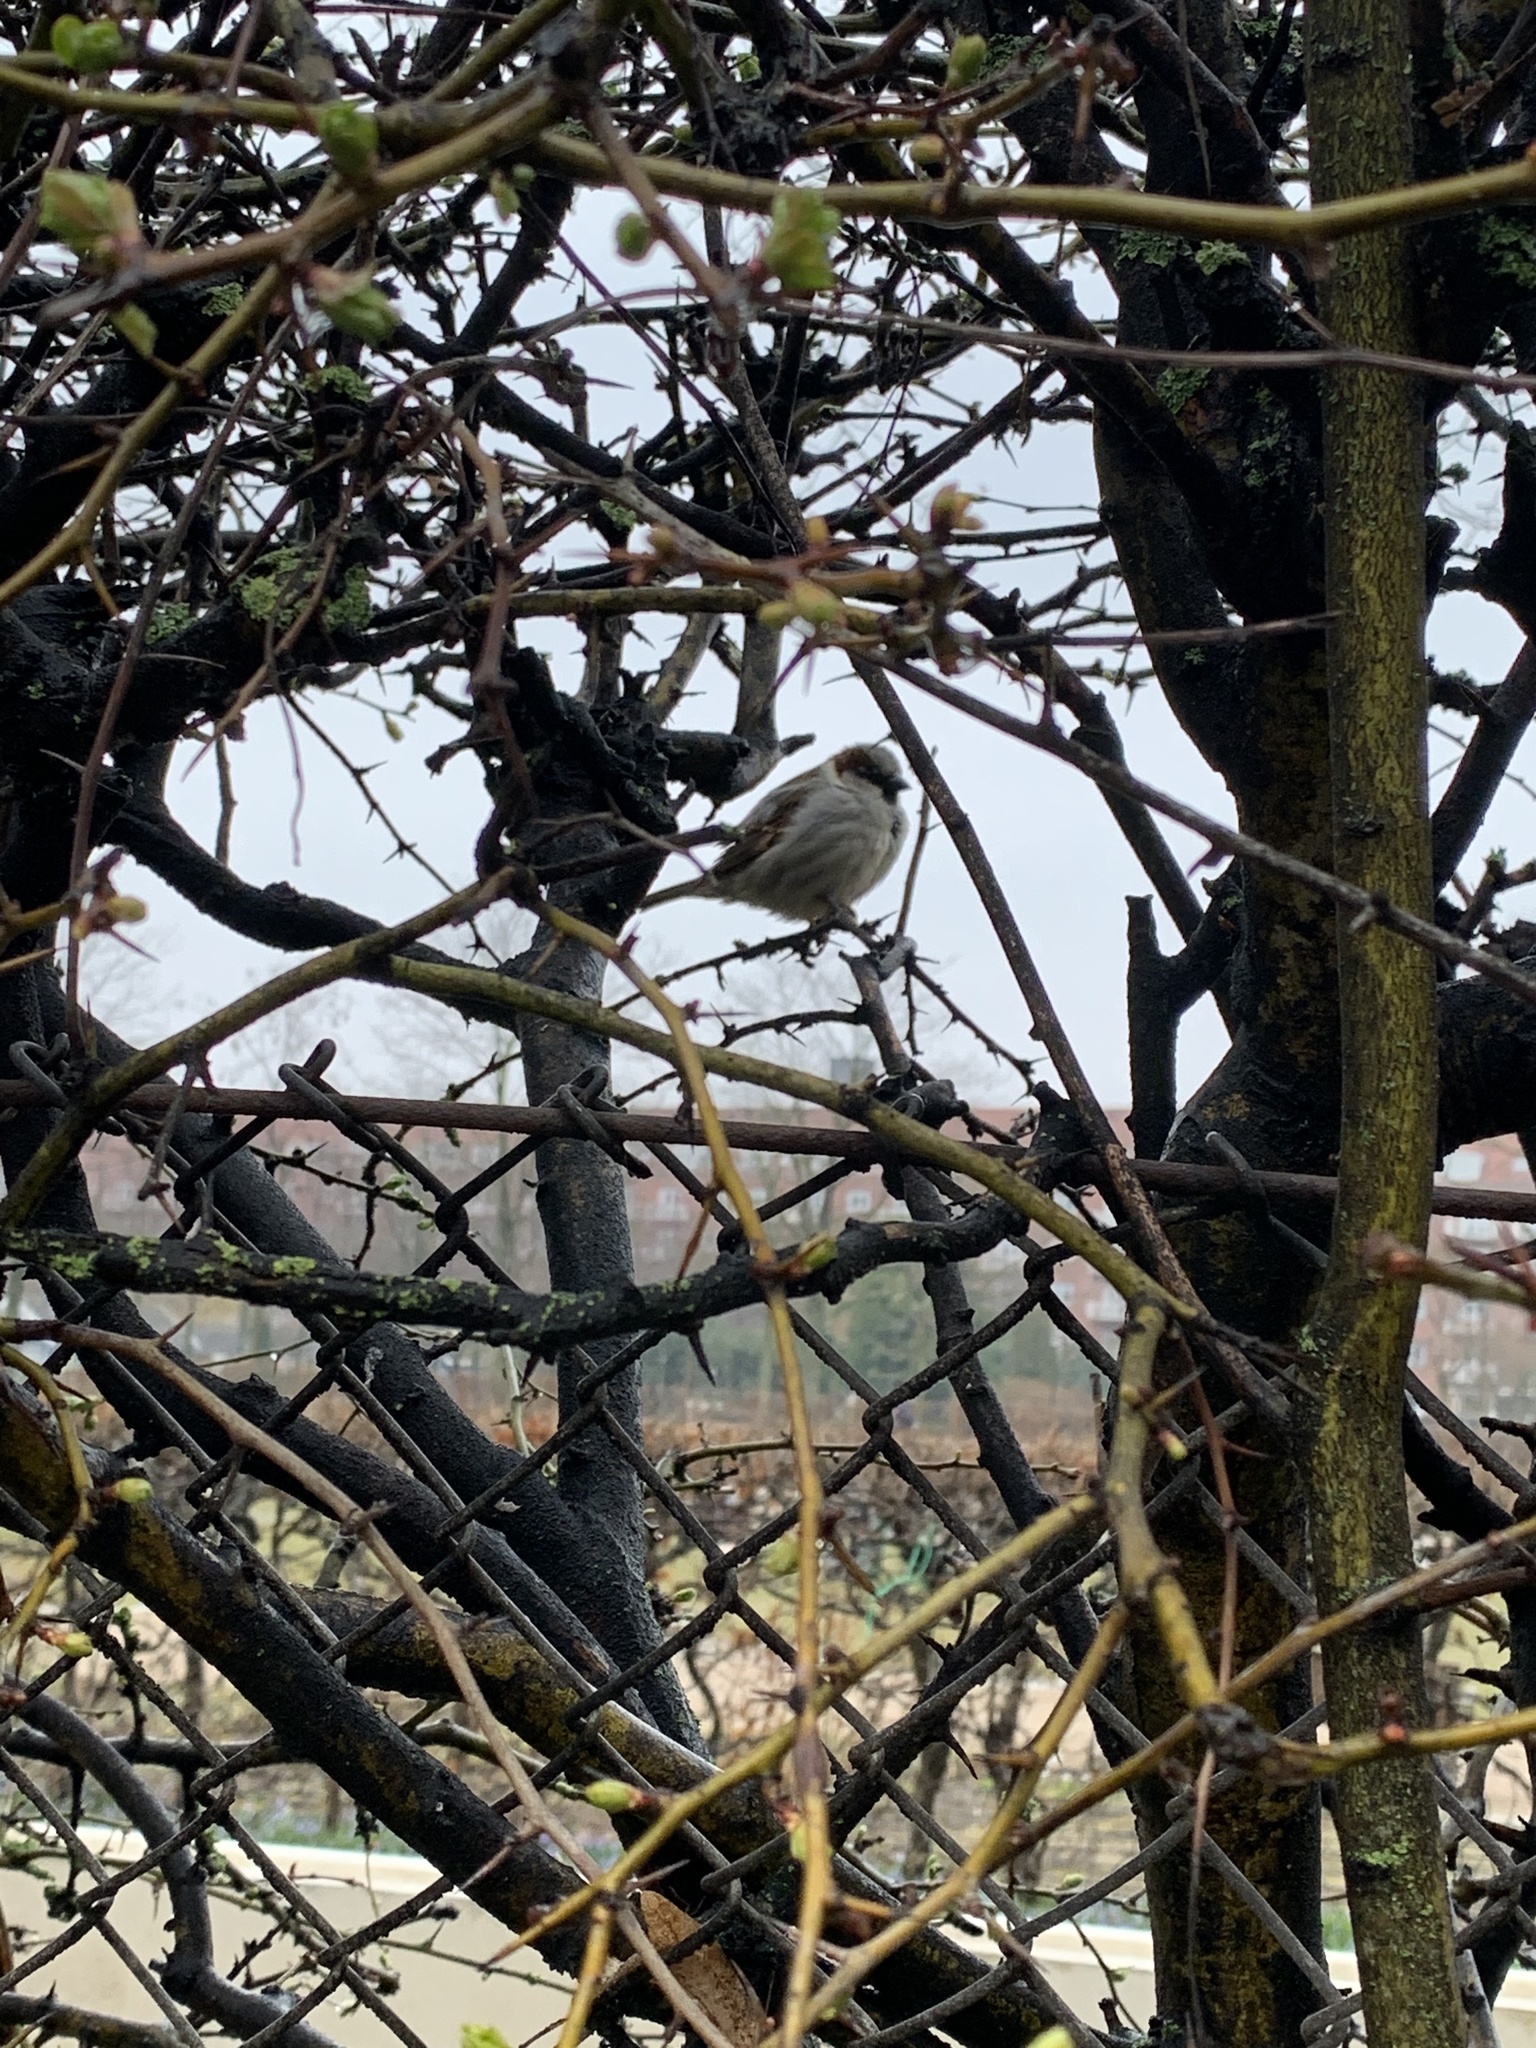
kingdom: Animalia
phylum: Chordata
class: Aves
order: Passeriformes
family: Passeridae
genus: Passer
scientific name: Passer domesticus
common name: House sparrow
